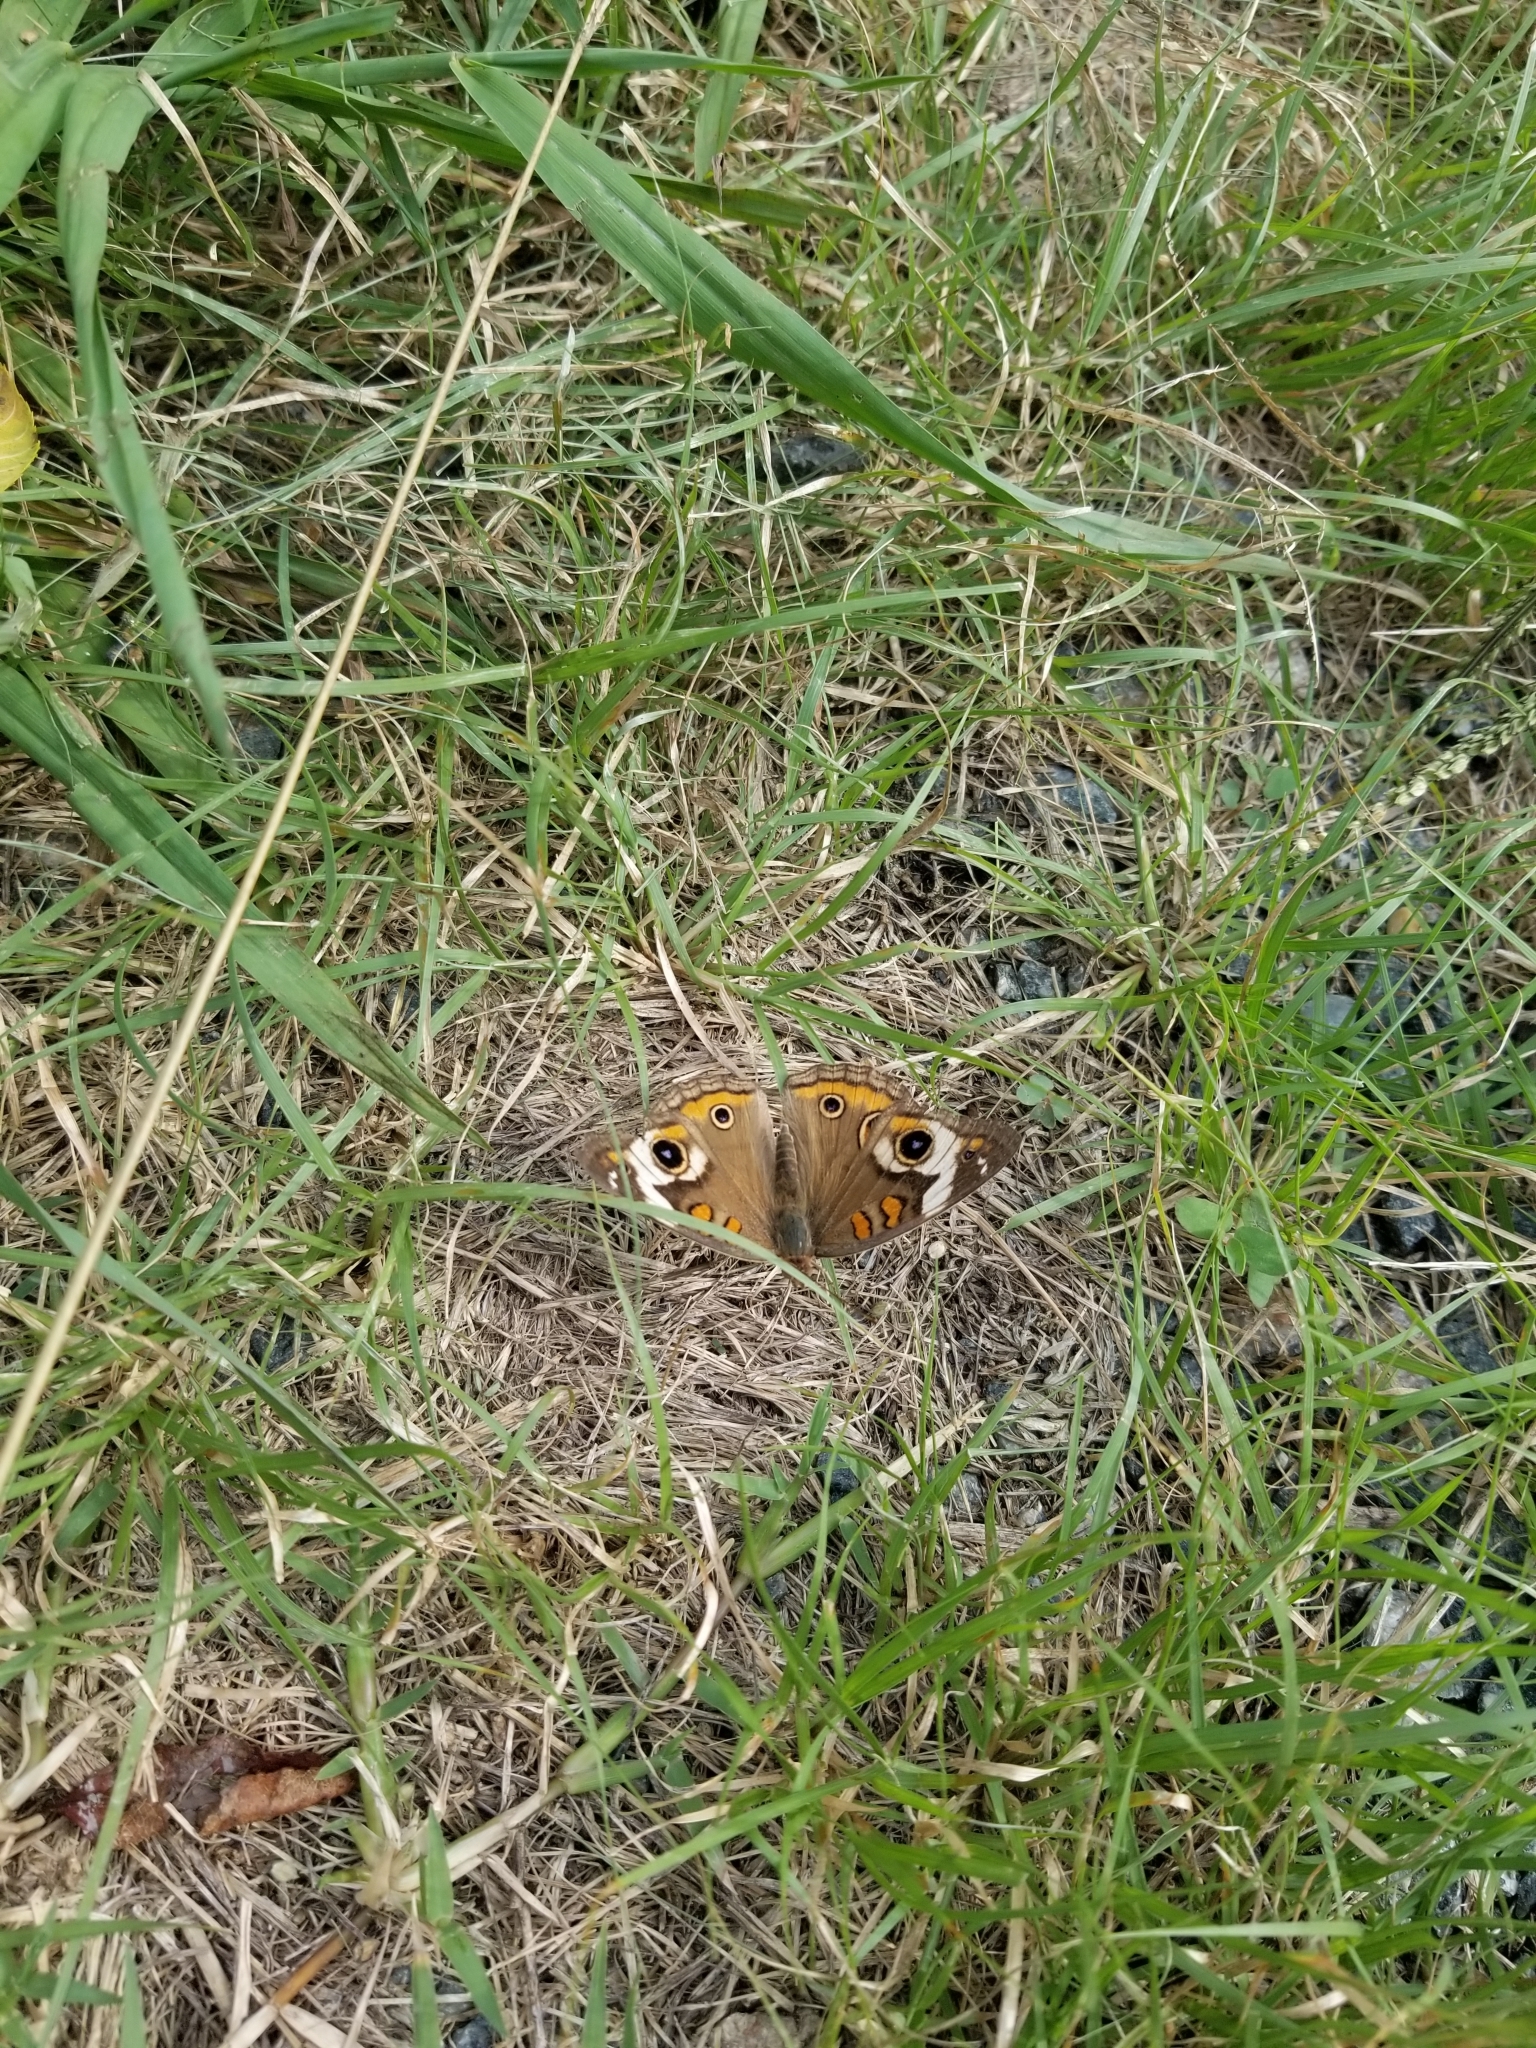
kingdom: Animalia
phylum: Arthropoda
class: Insecta
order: Lepidoptera
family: Nymphalidae
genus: Junonia
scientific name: Junonia coenia
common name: Common buckeye
